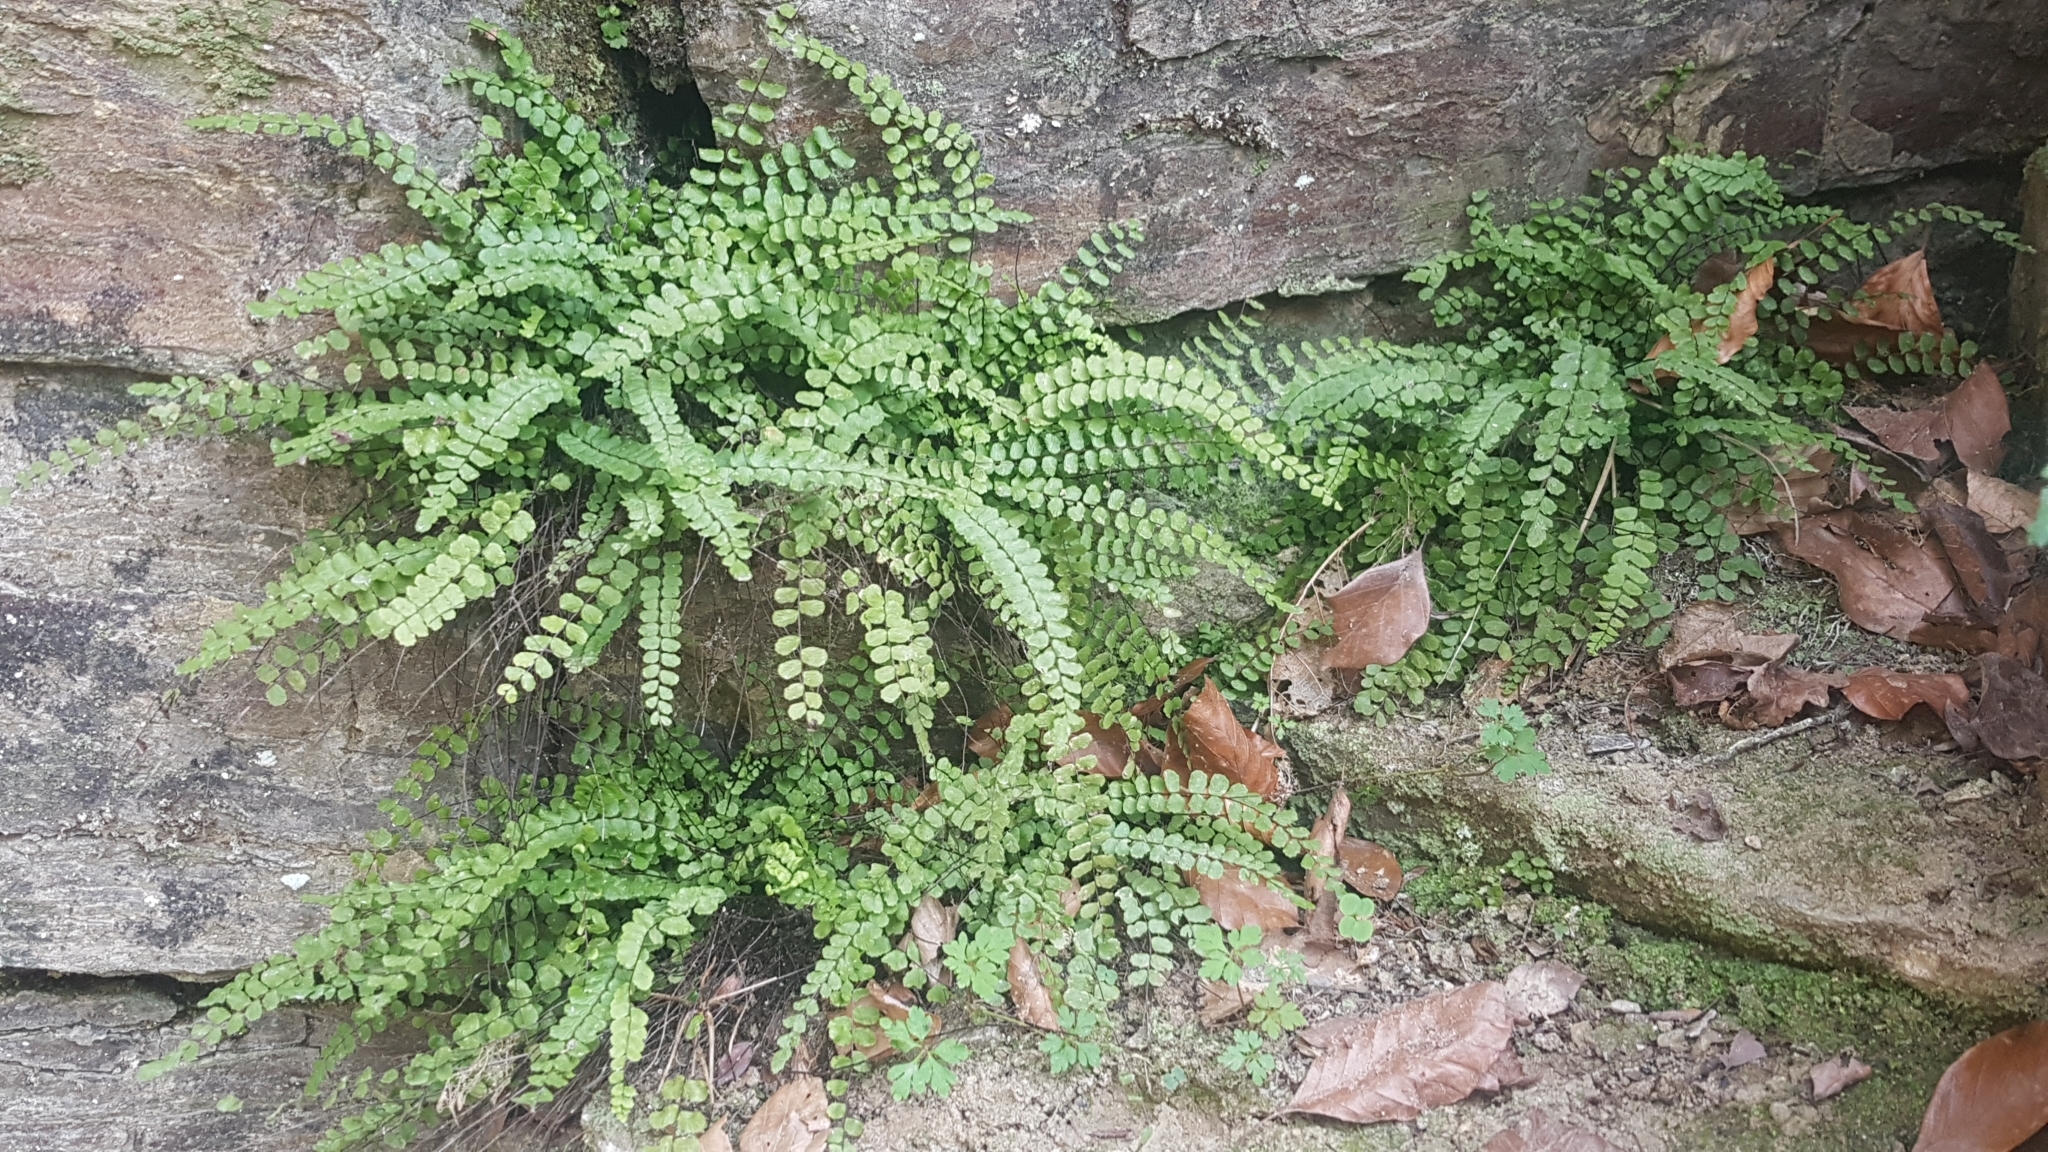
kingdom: Plantae
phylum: Tracheophyta
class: Polypodiopsida
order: Polypodiales
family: Aspleniaceae
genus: Asplenium
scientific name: Asplenium trichomanes
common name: Maidenhair spleenwort
